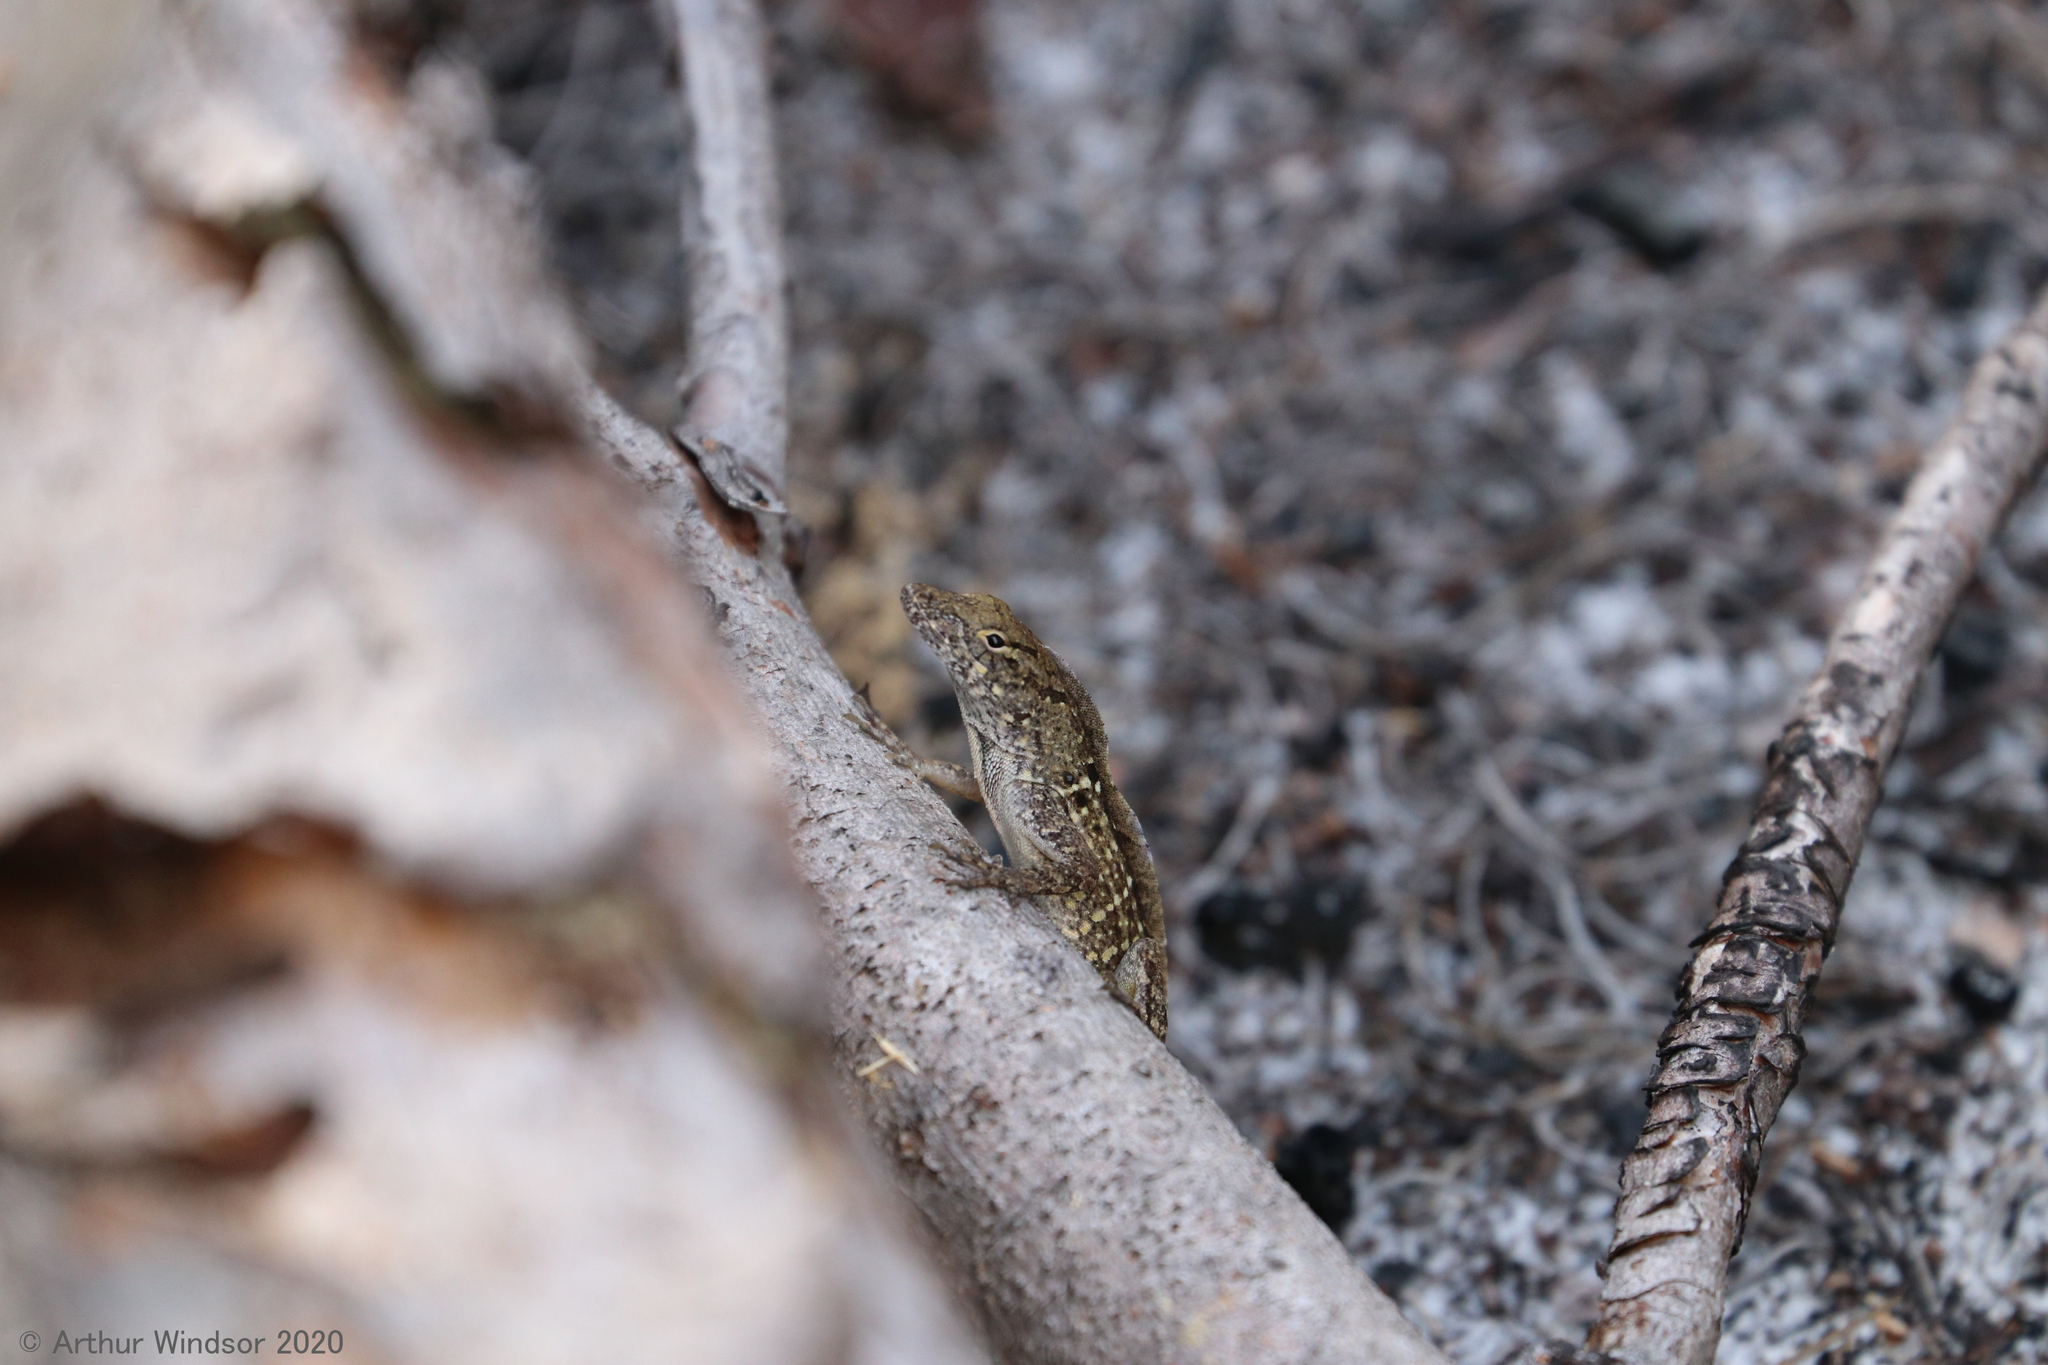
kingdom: Animalia
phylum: Chordata
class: Squamata
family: Dactyloidae
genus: Anolis
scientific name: Anolis sagrei
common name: Brown anole
